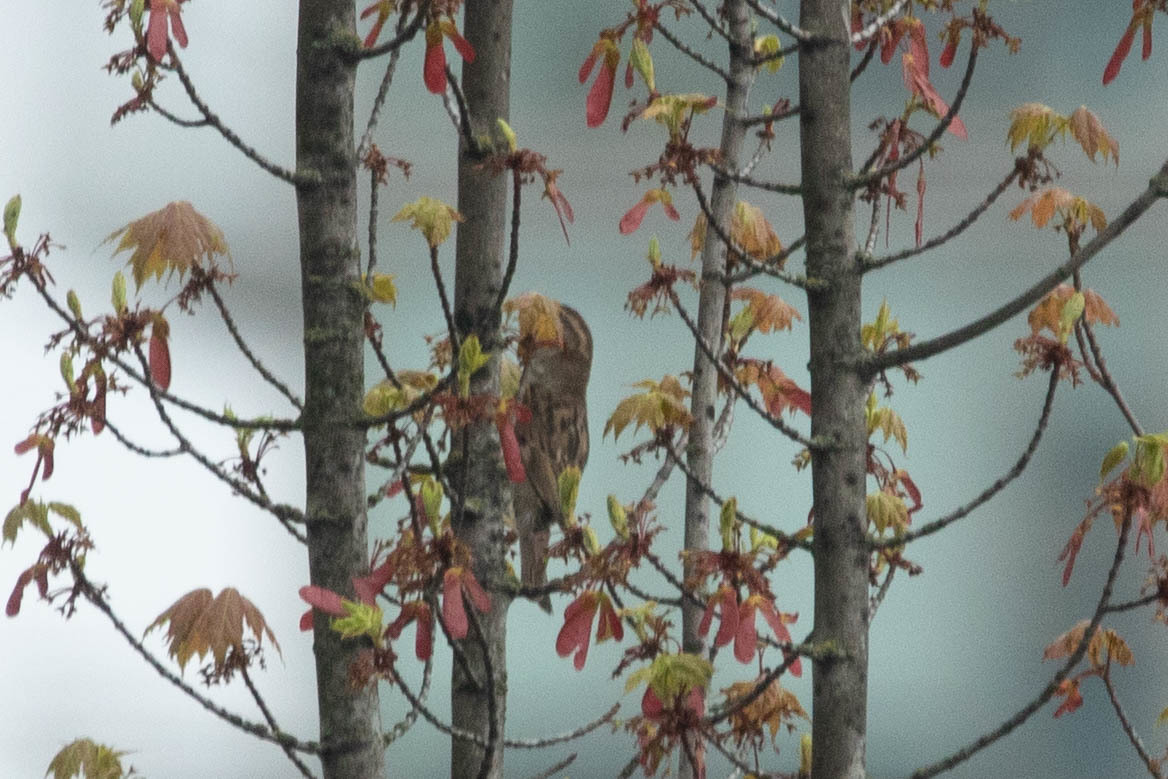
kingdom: Animalia
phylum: Chordata
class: Aves
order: Passeriformes
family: Passeridae
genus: Passer
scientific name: Passer domesticus
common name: House sparrow
